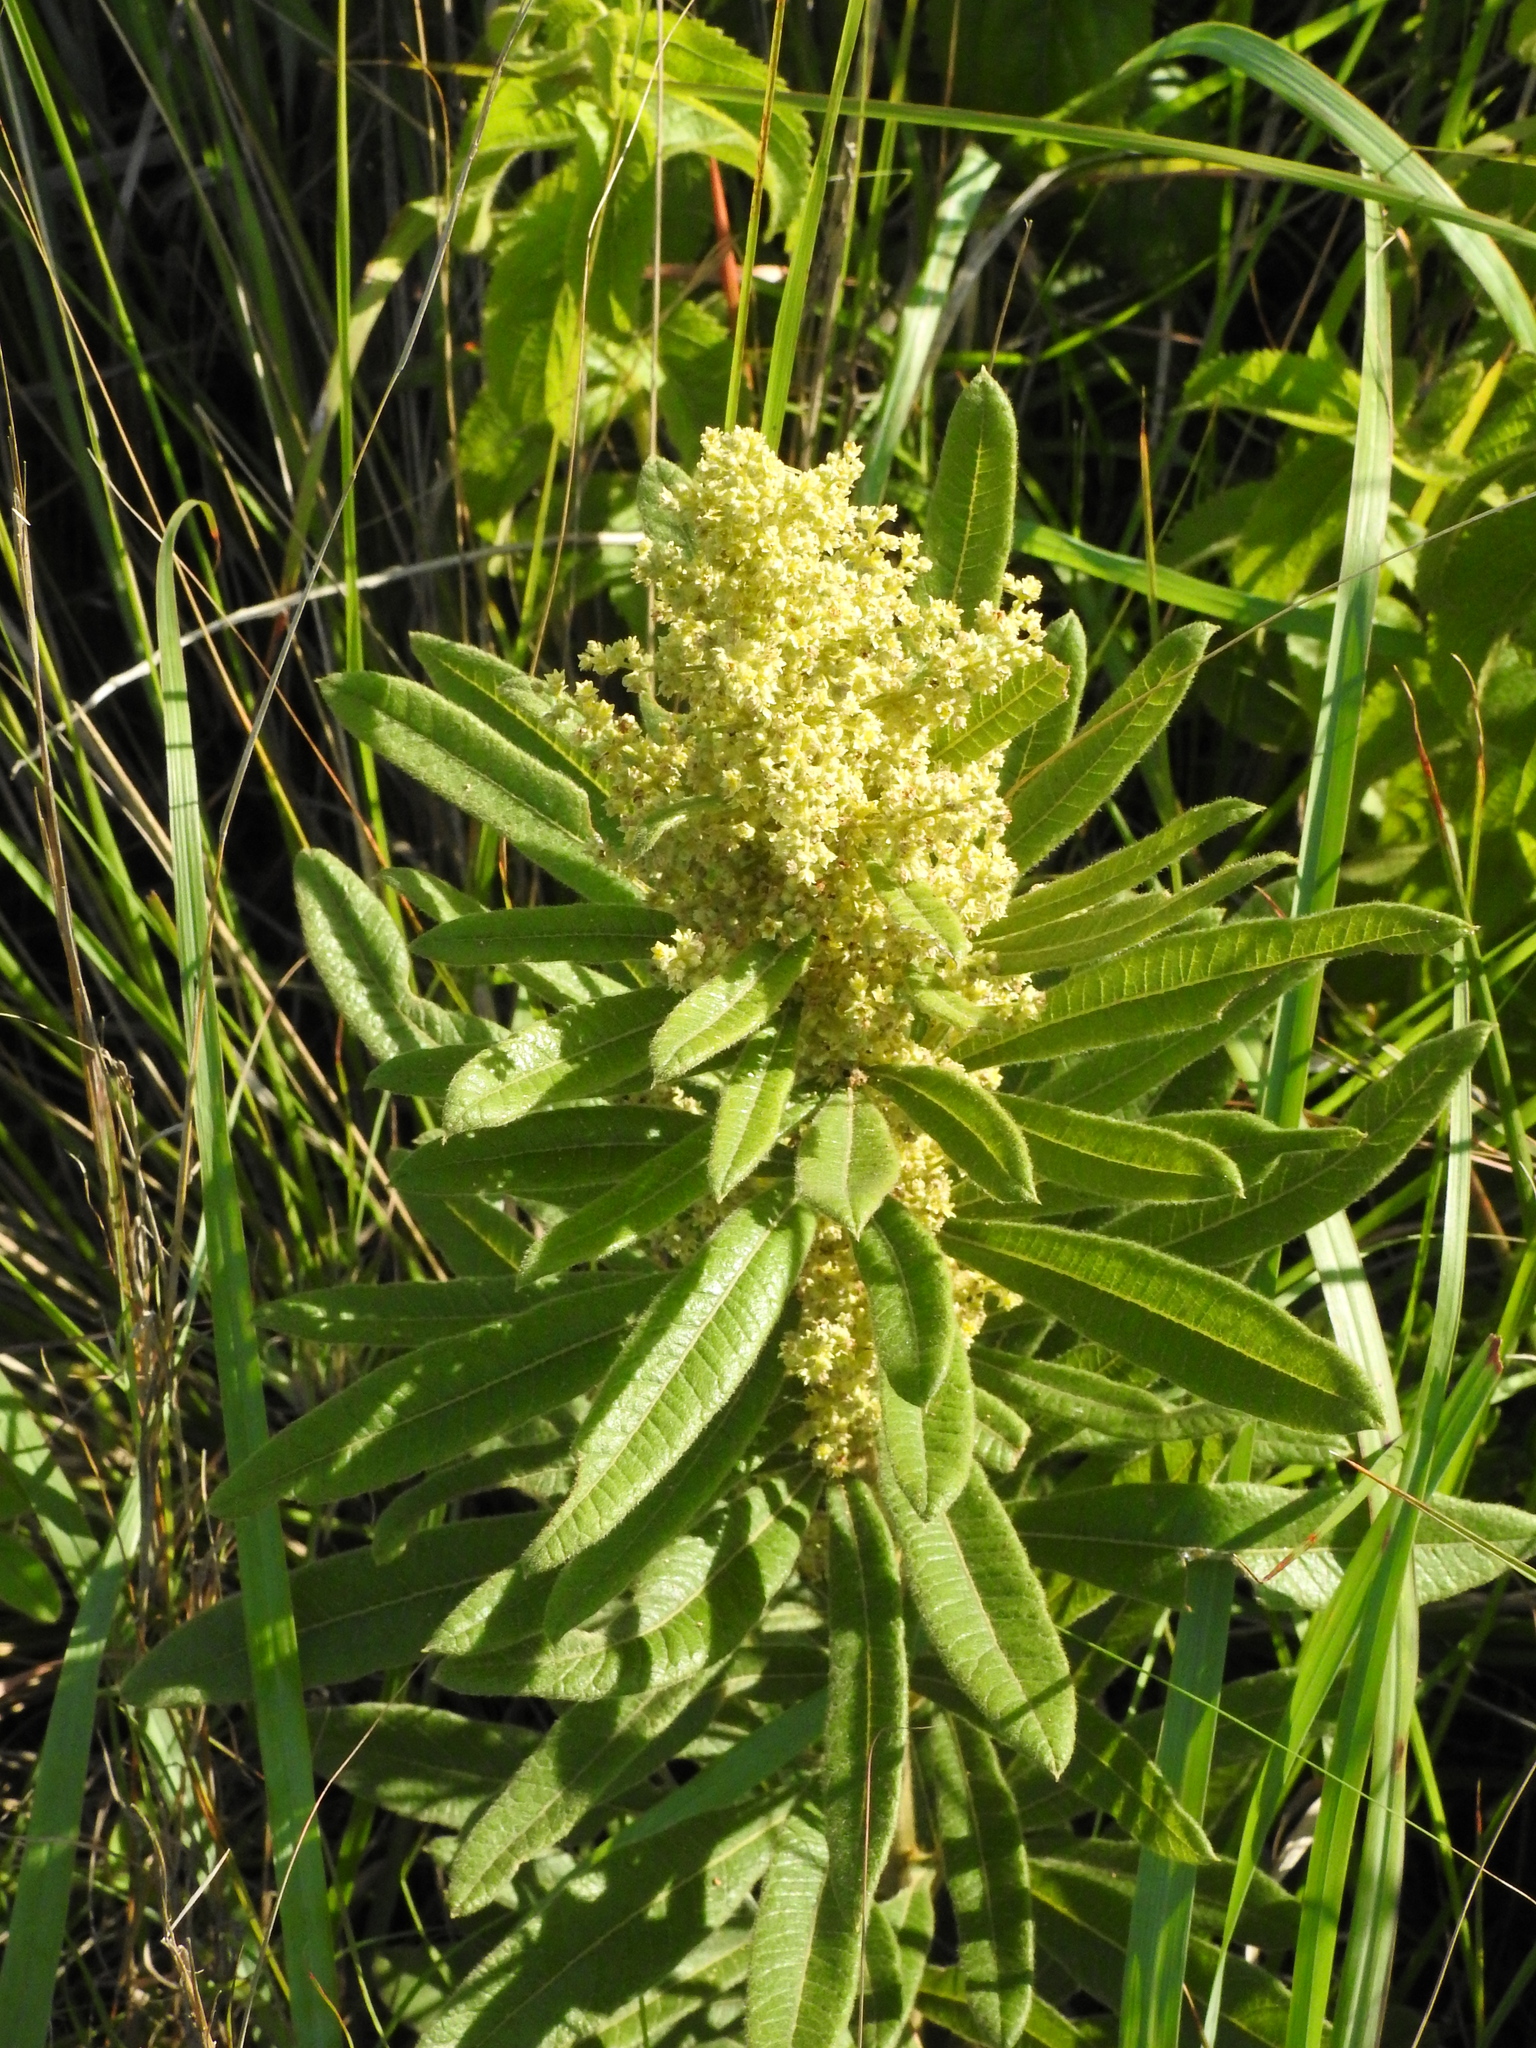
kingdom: Plantae
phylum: Tracheophyta
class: Magnoliopsida
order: Sapindales
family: Anacardiaceae
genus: Searsia
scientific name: Searsia discolor
